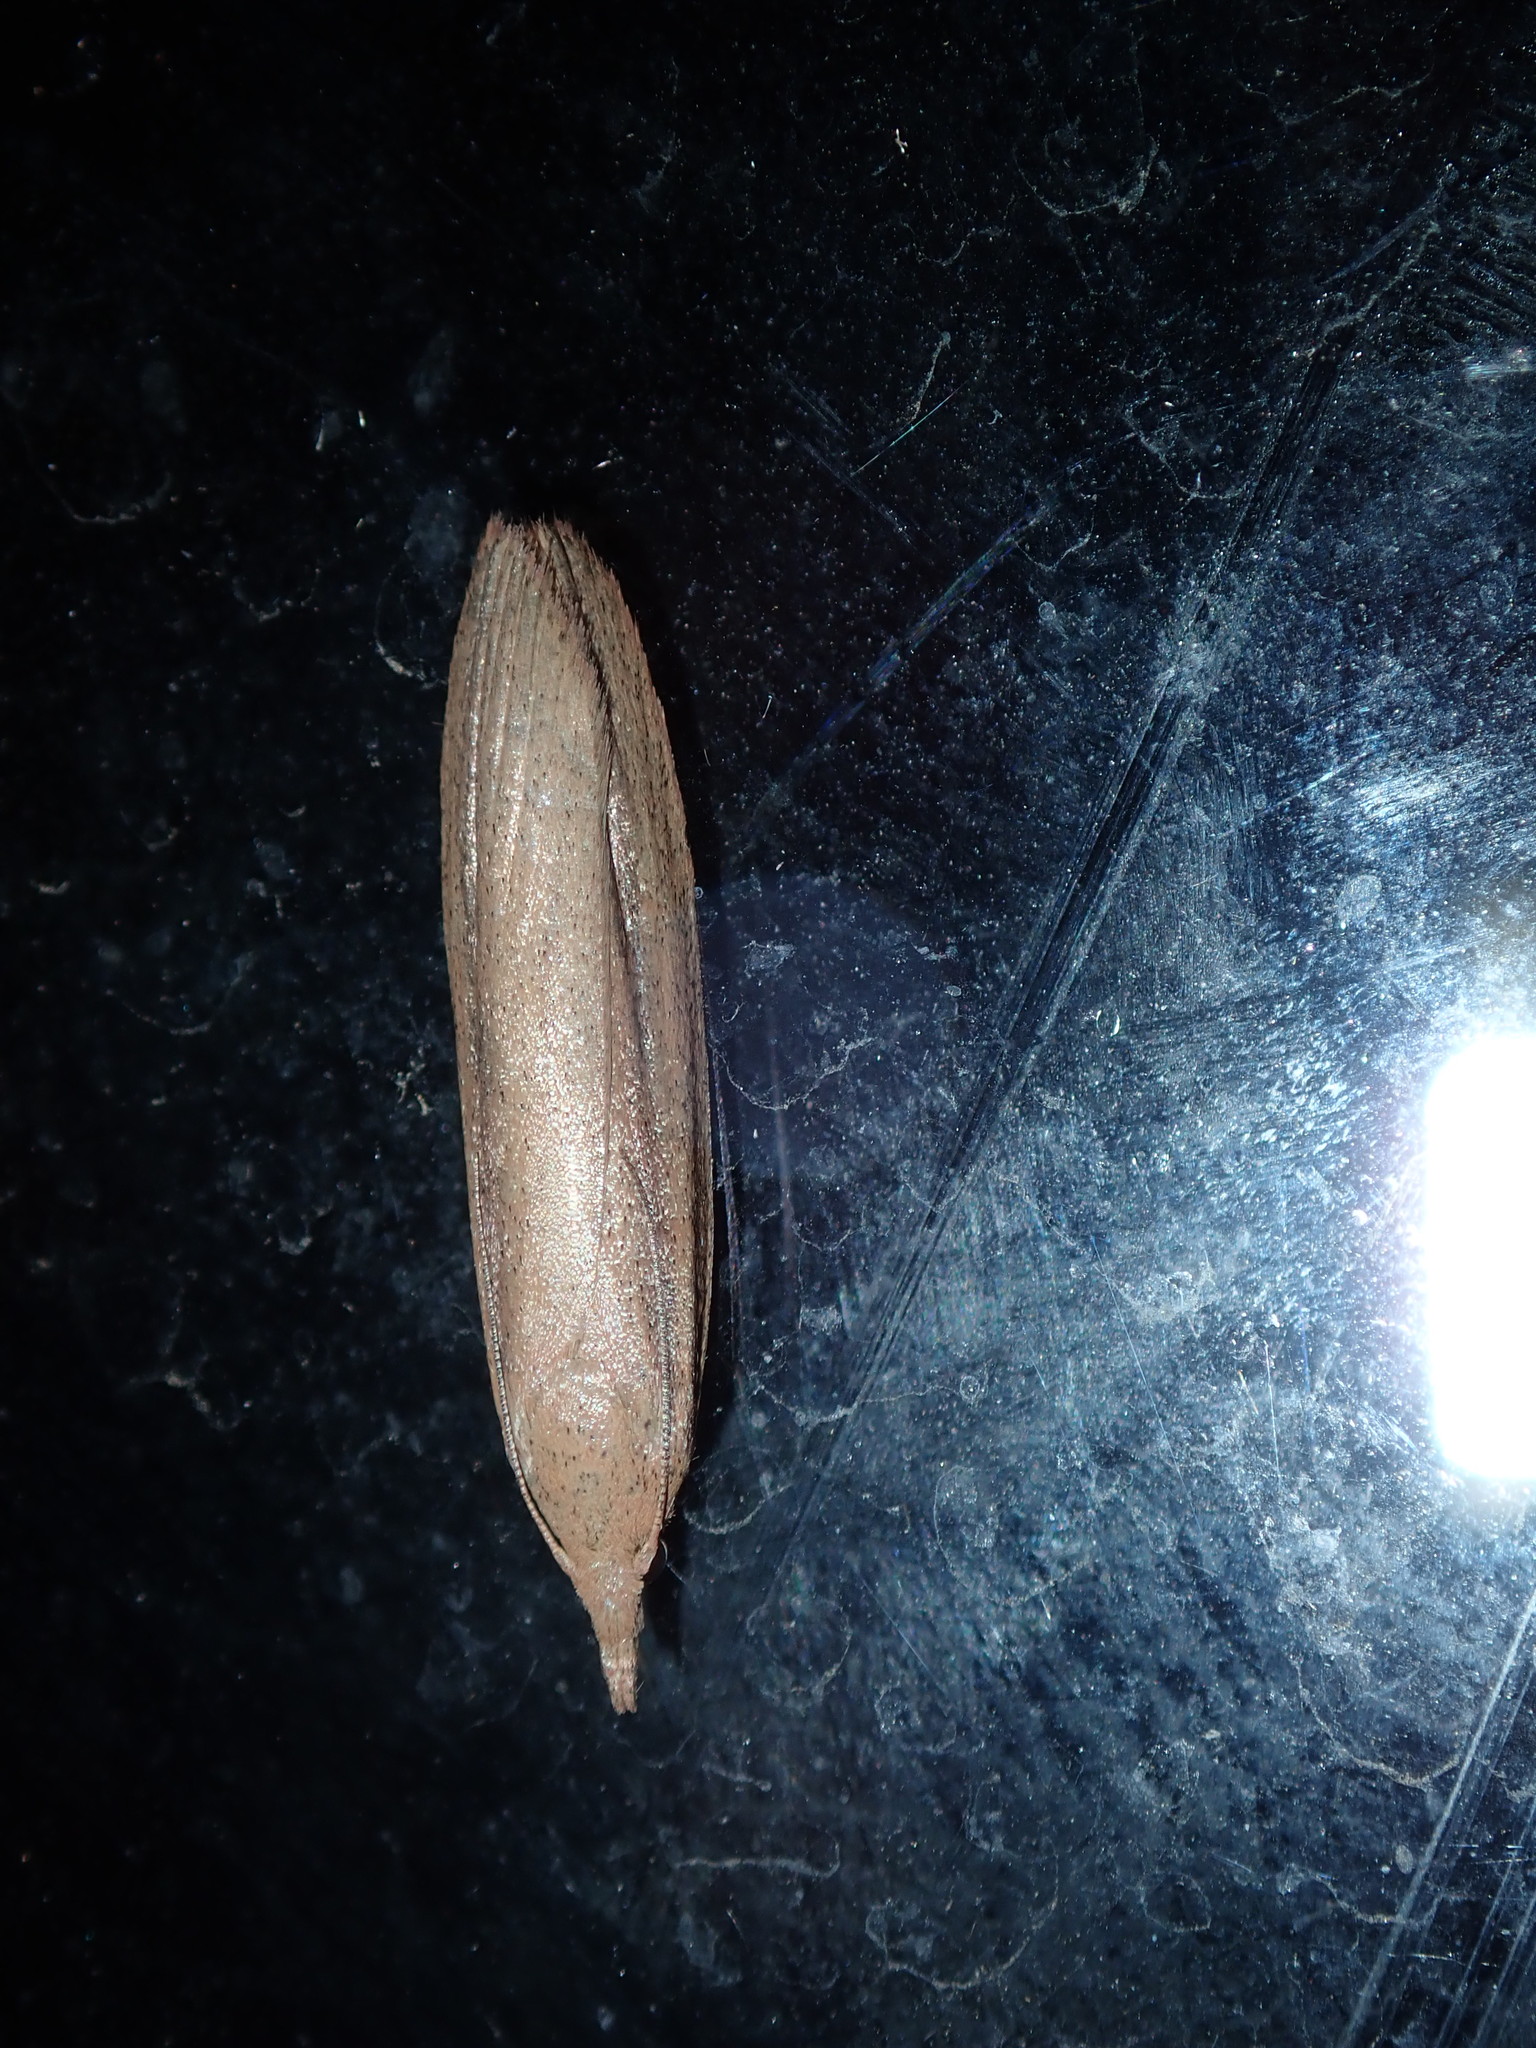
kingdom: Animalia
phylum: Arthropoda
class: Insecta
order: Lepidoptera
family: Pyralidae
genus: Meyriccia
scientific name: Meyriccia latro
